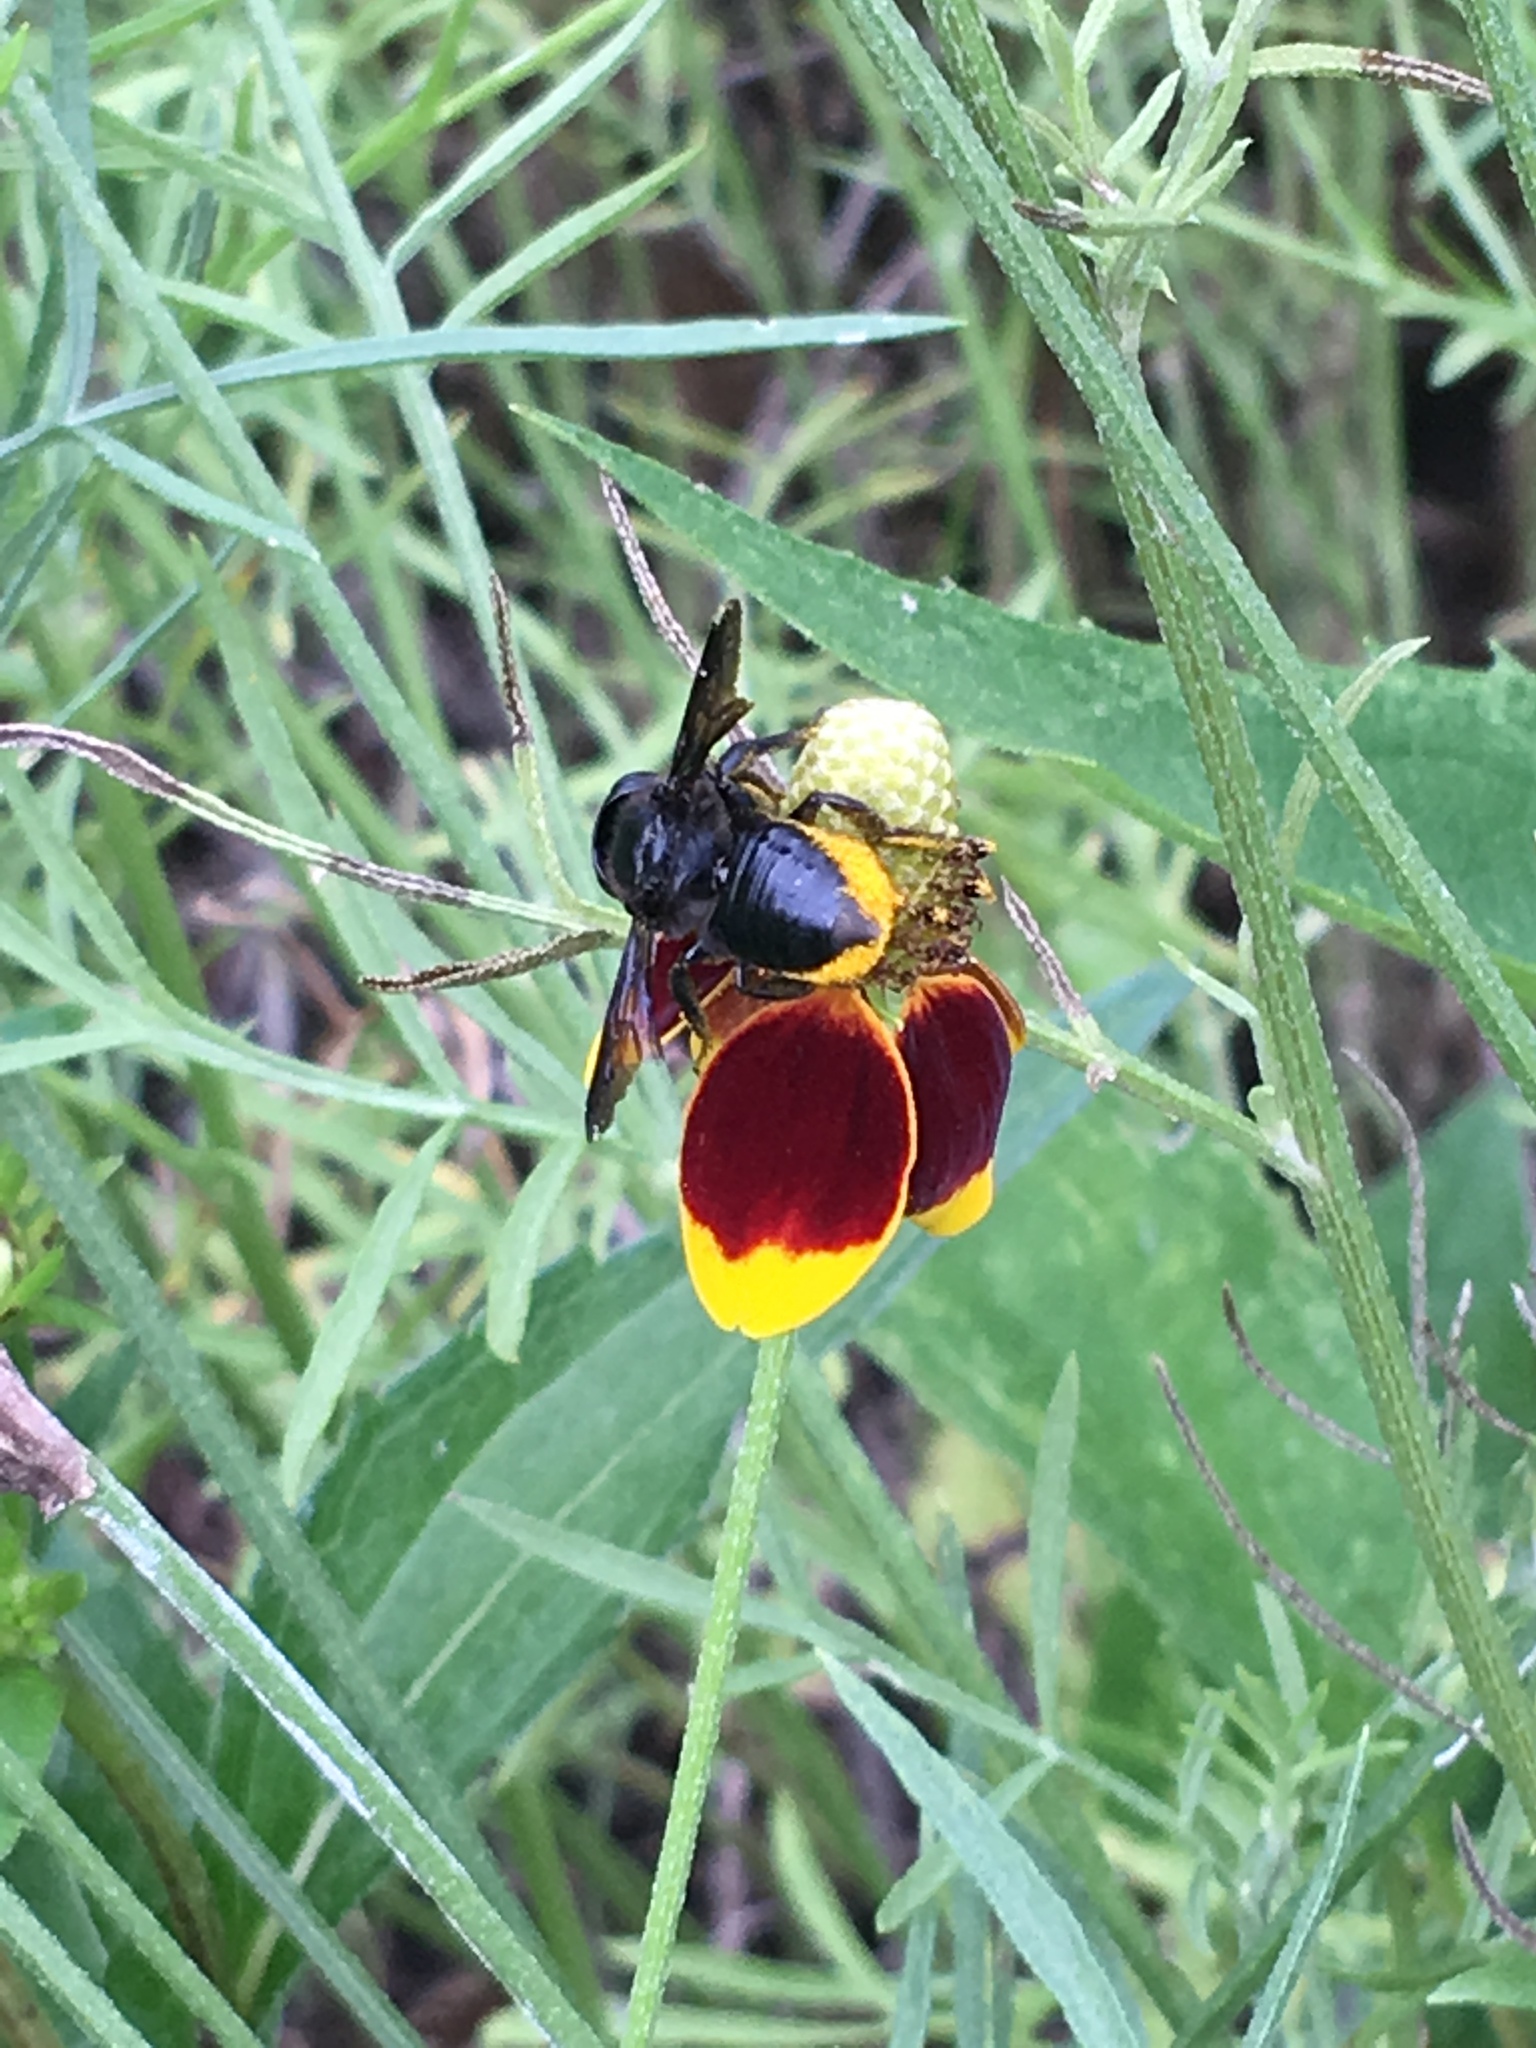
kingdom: Animalia
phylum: Arthropoda
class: Insecta
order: Hymenoptera
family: Megachilidae
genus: Megachile
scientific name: Megachile xylocopoides
